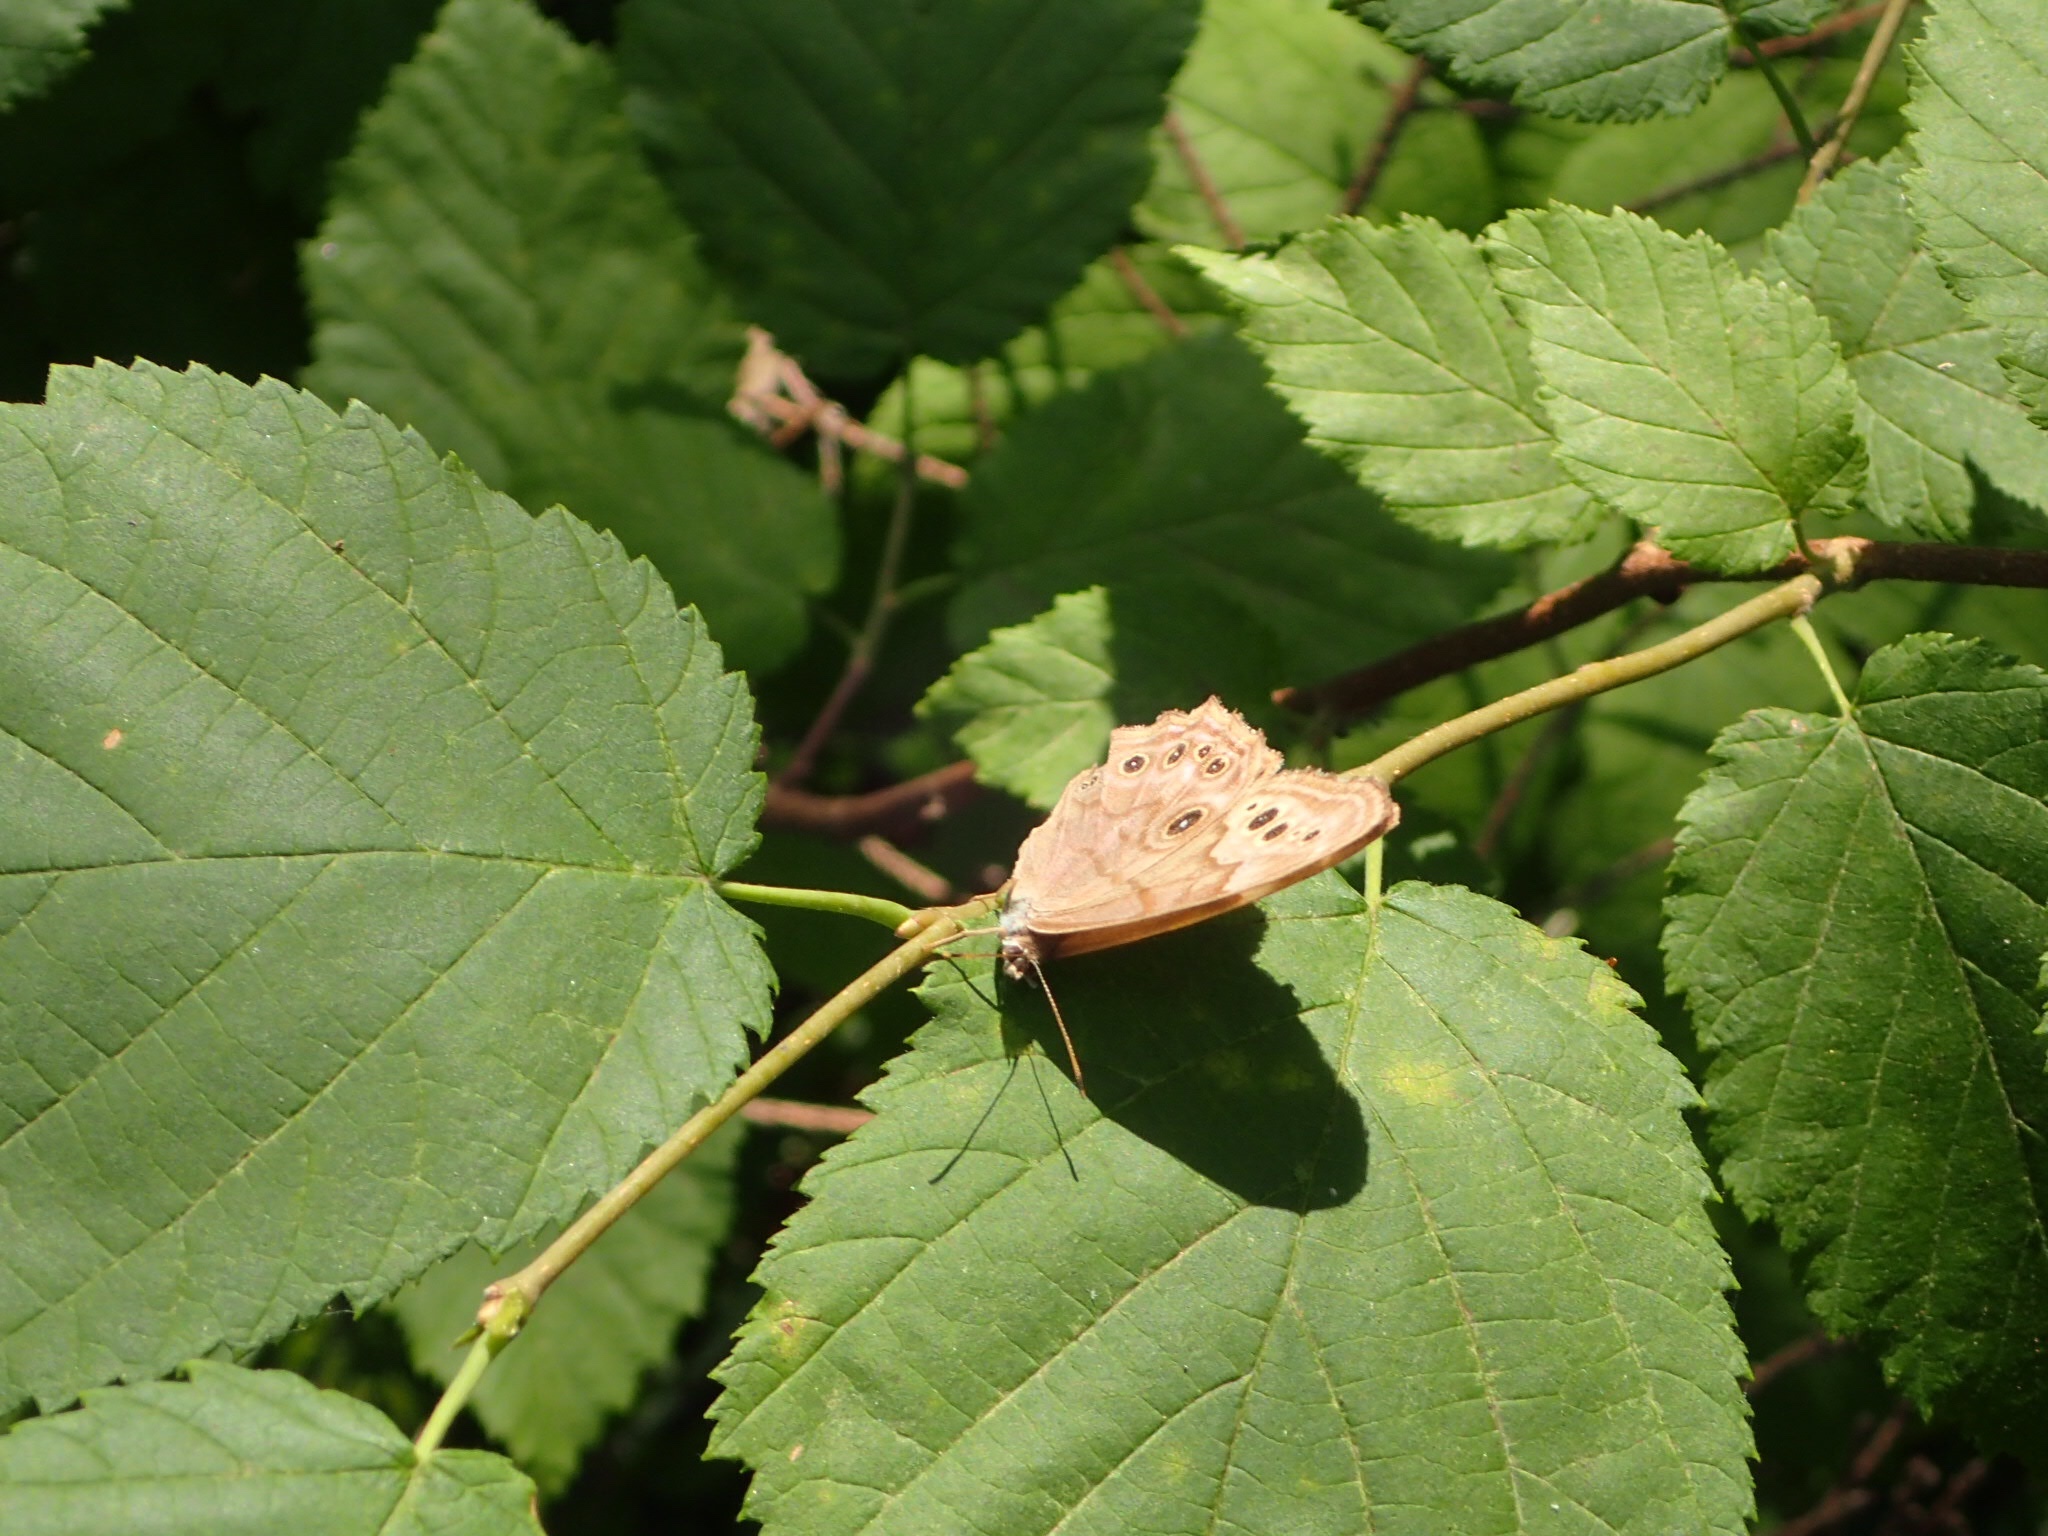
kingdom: Animalia
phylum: Arthropoda
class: Insecta
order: Lepidoptera
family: Nymphalidae
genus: Lethe
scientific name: Lethe anthedon
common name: Northern pearly-eye
